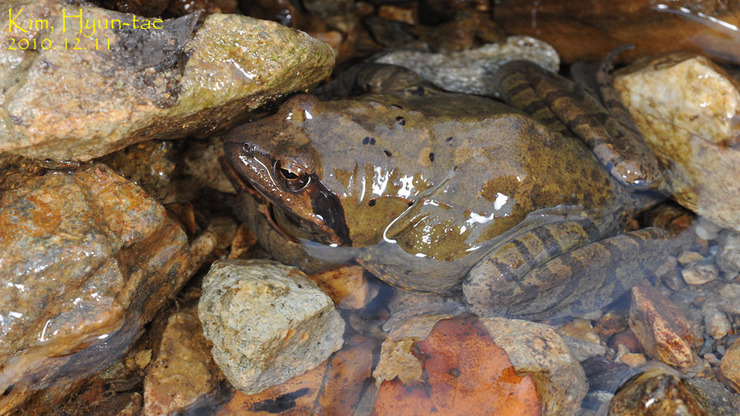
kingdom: Animalia
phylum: Chordata
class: Amphibia
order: Anura
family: Ranidae
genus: Rana
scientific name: Rana uenoi
